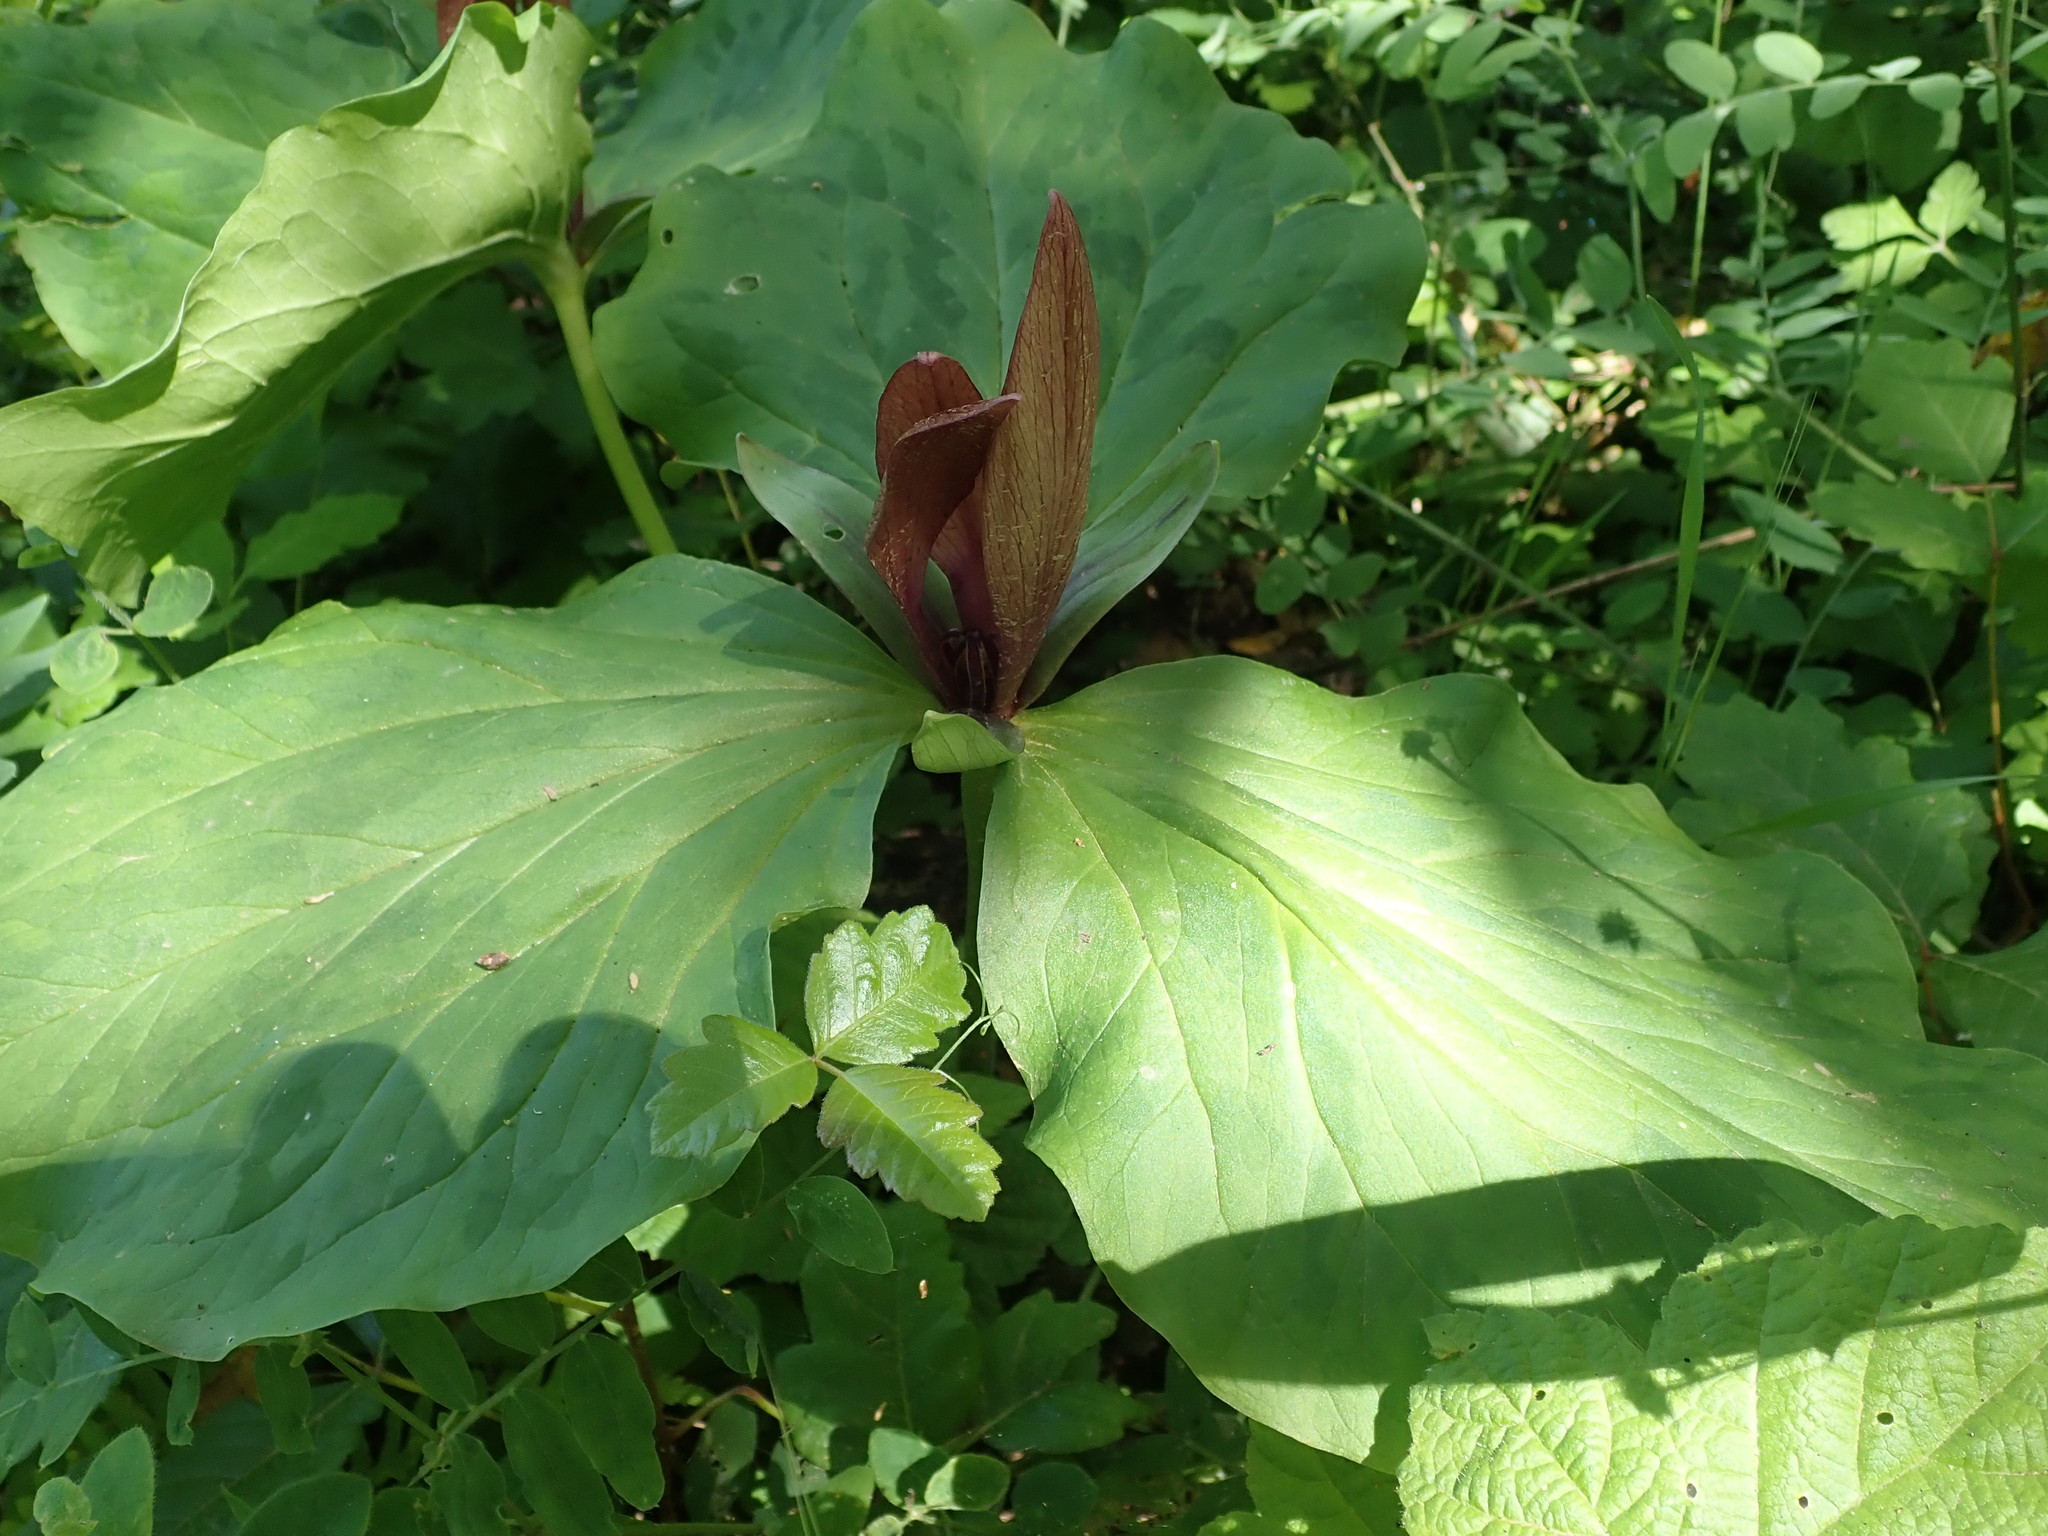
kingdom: Plantae
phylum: Tracheophyta
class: Liliopsida
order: Liliales
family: Melanthiaceae
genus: Trillium
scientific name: Trillium chloropetalum
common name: Giant trillium
